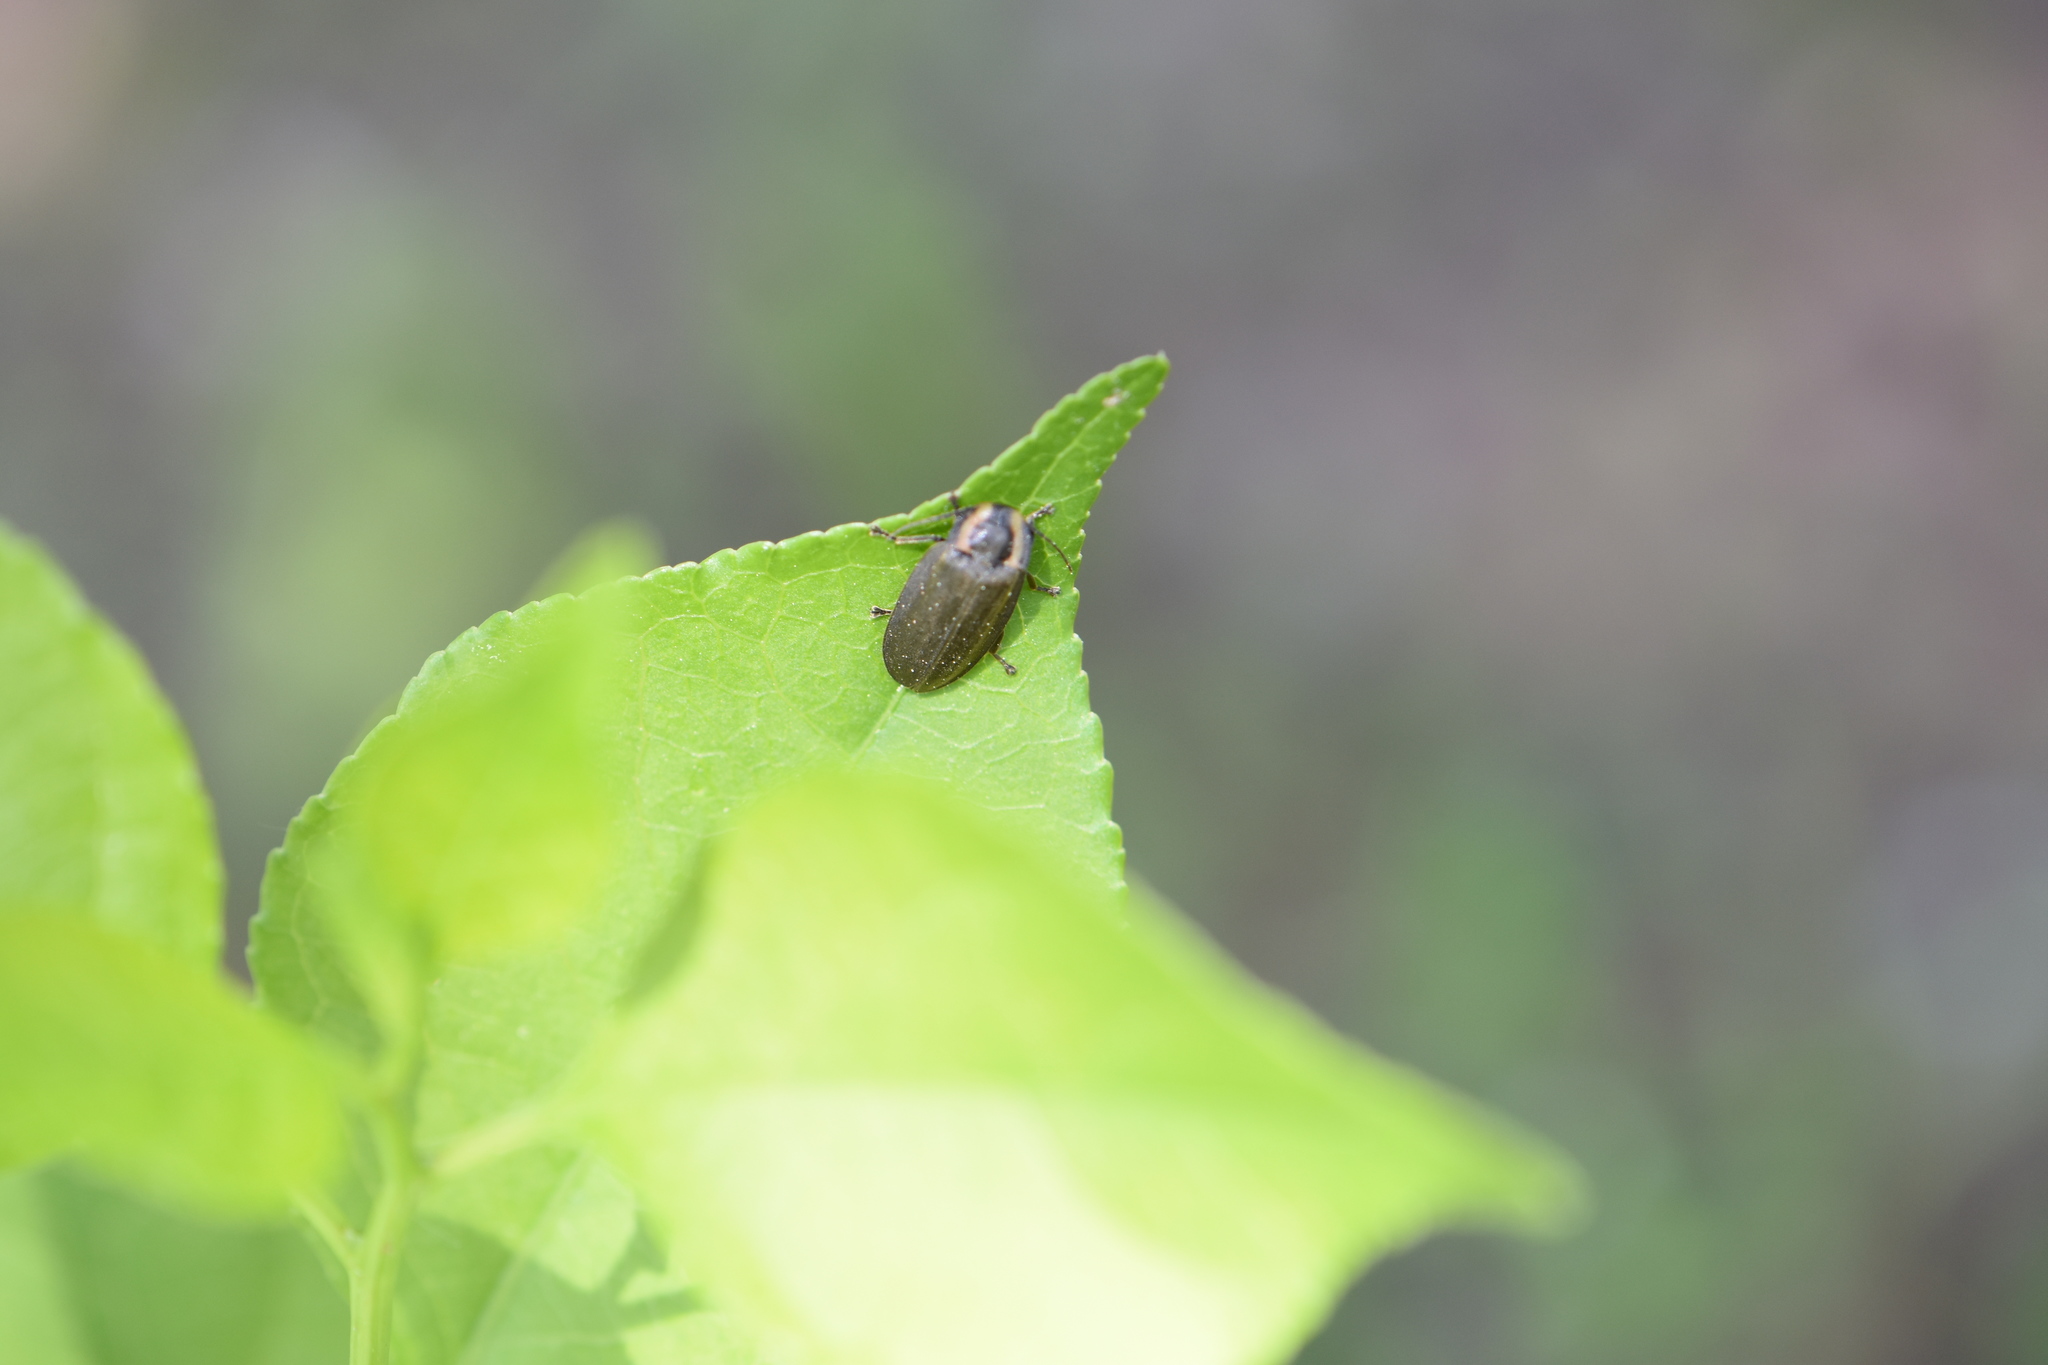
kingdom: Animalia
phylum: Arthropoda
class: Insecta
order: Coleoptera
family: Lampyridae
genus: Photinus
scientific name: Photinus corrusca
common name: Winter firefly
